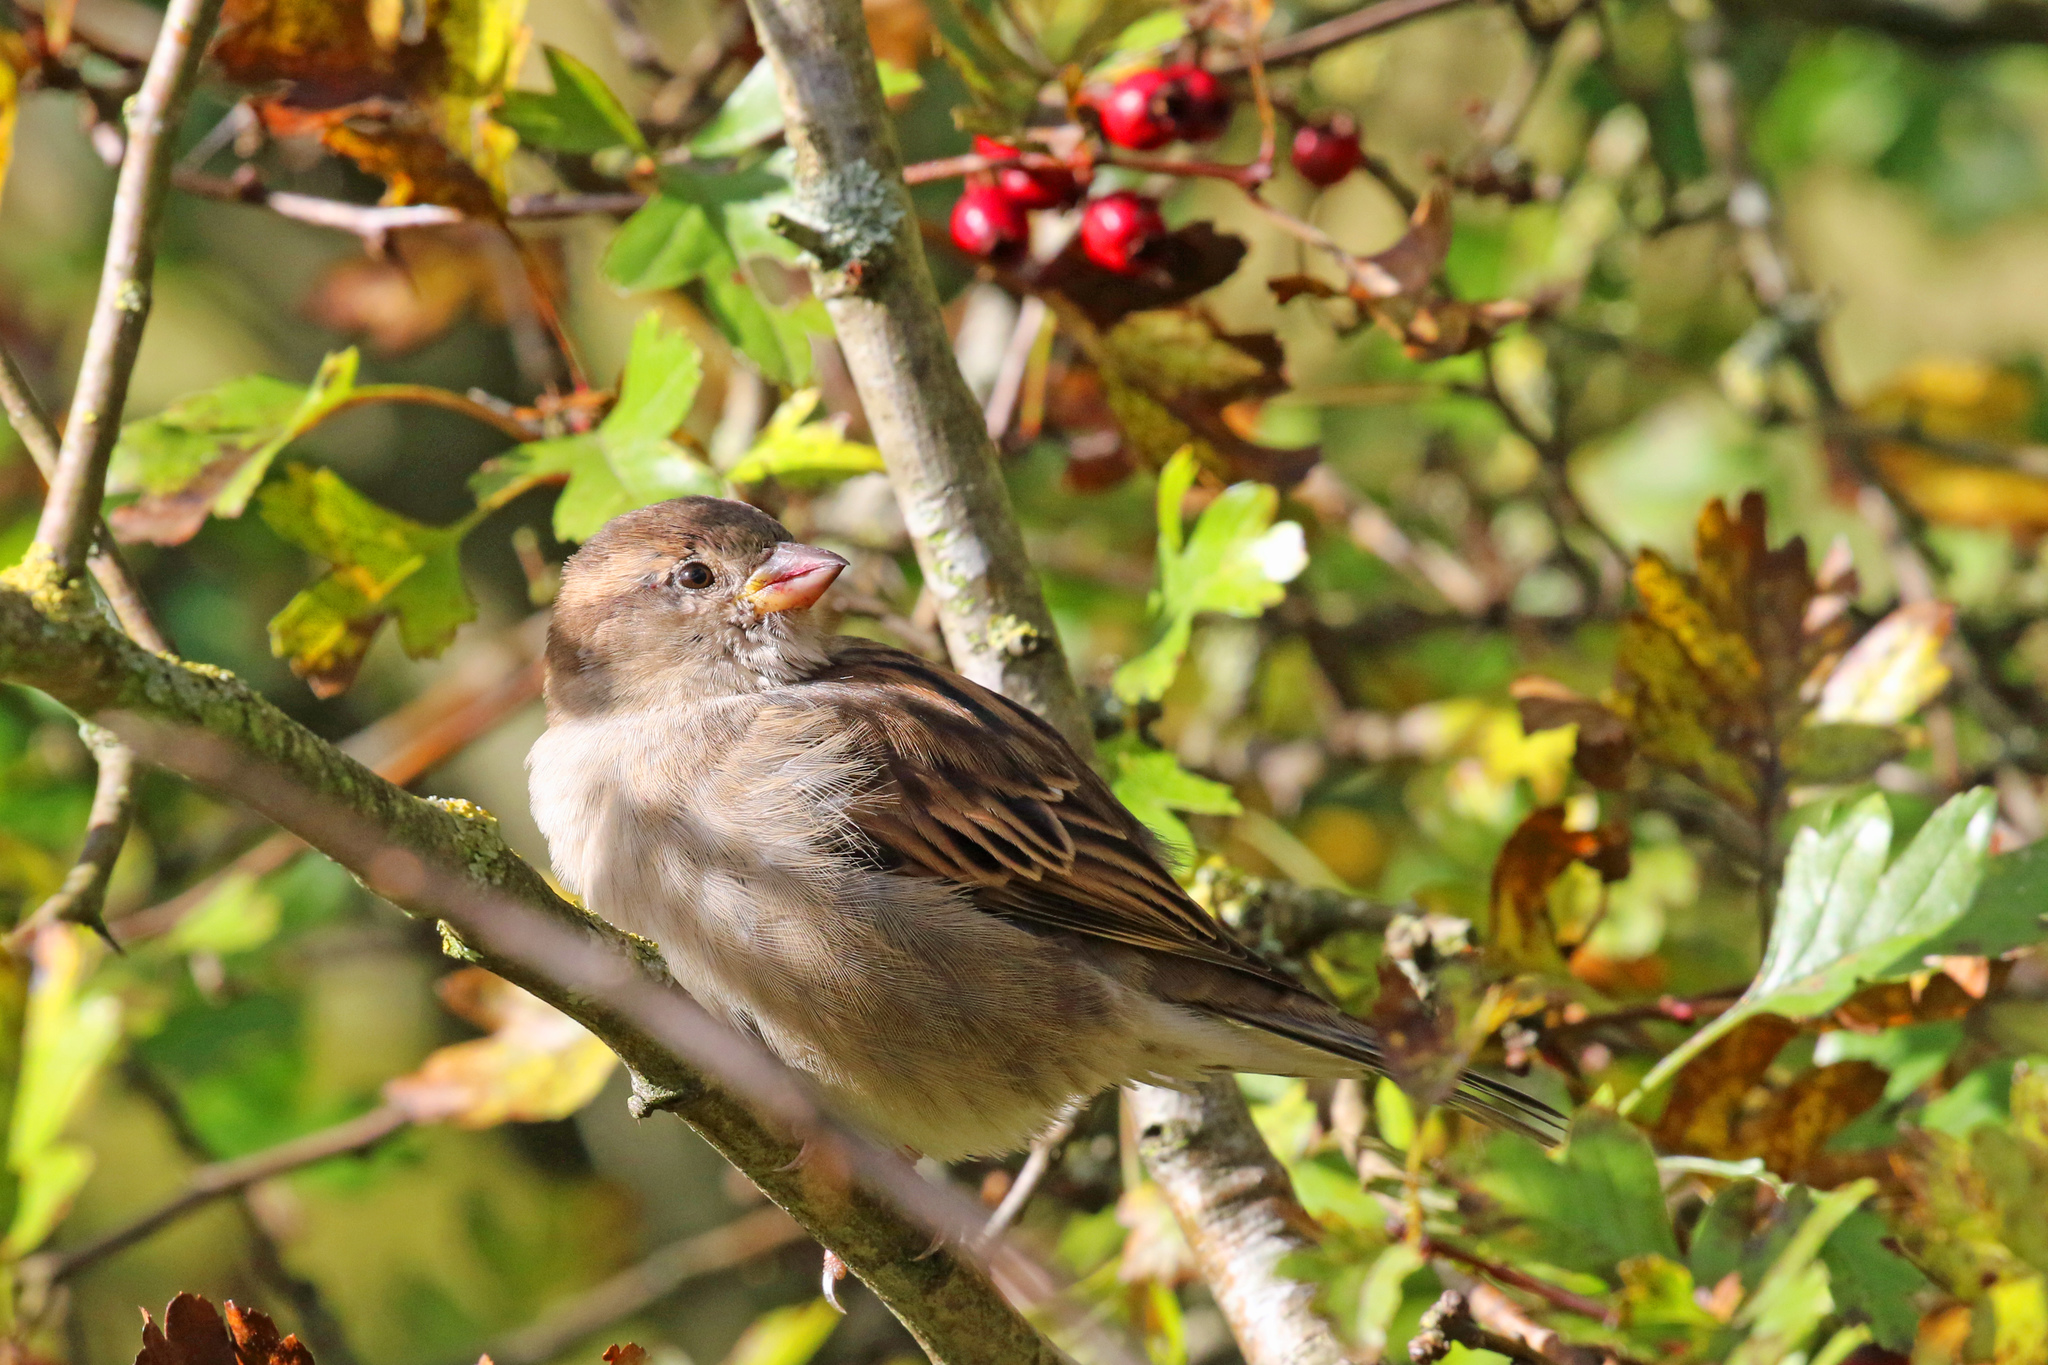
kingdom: Animalia
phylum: Chordata
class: Aves
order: Passeriformes
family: Passeridae
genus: Passer
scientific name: Passer domesticus
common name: House sparrow
